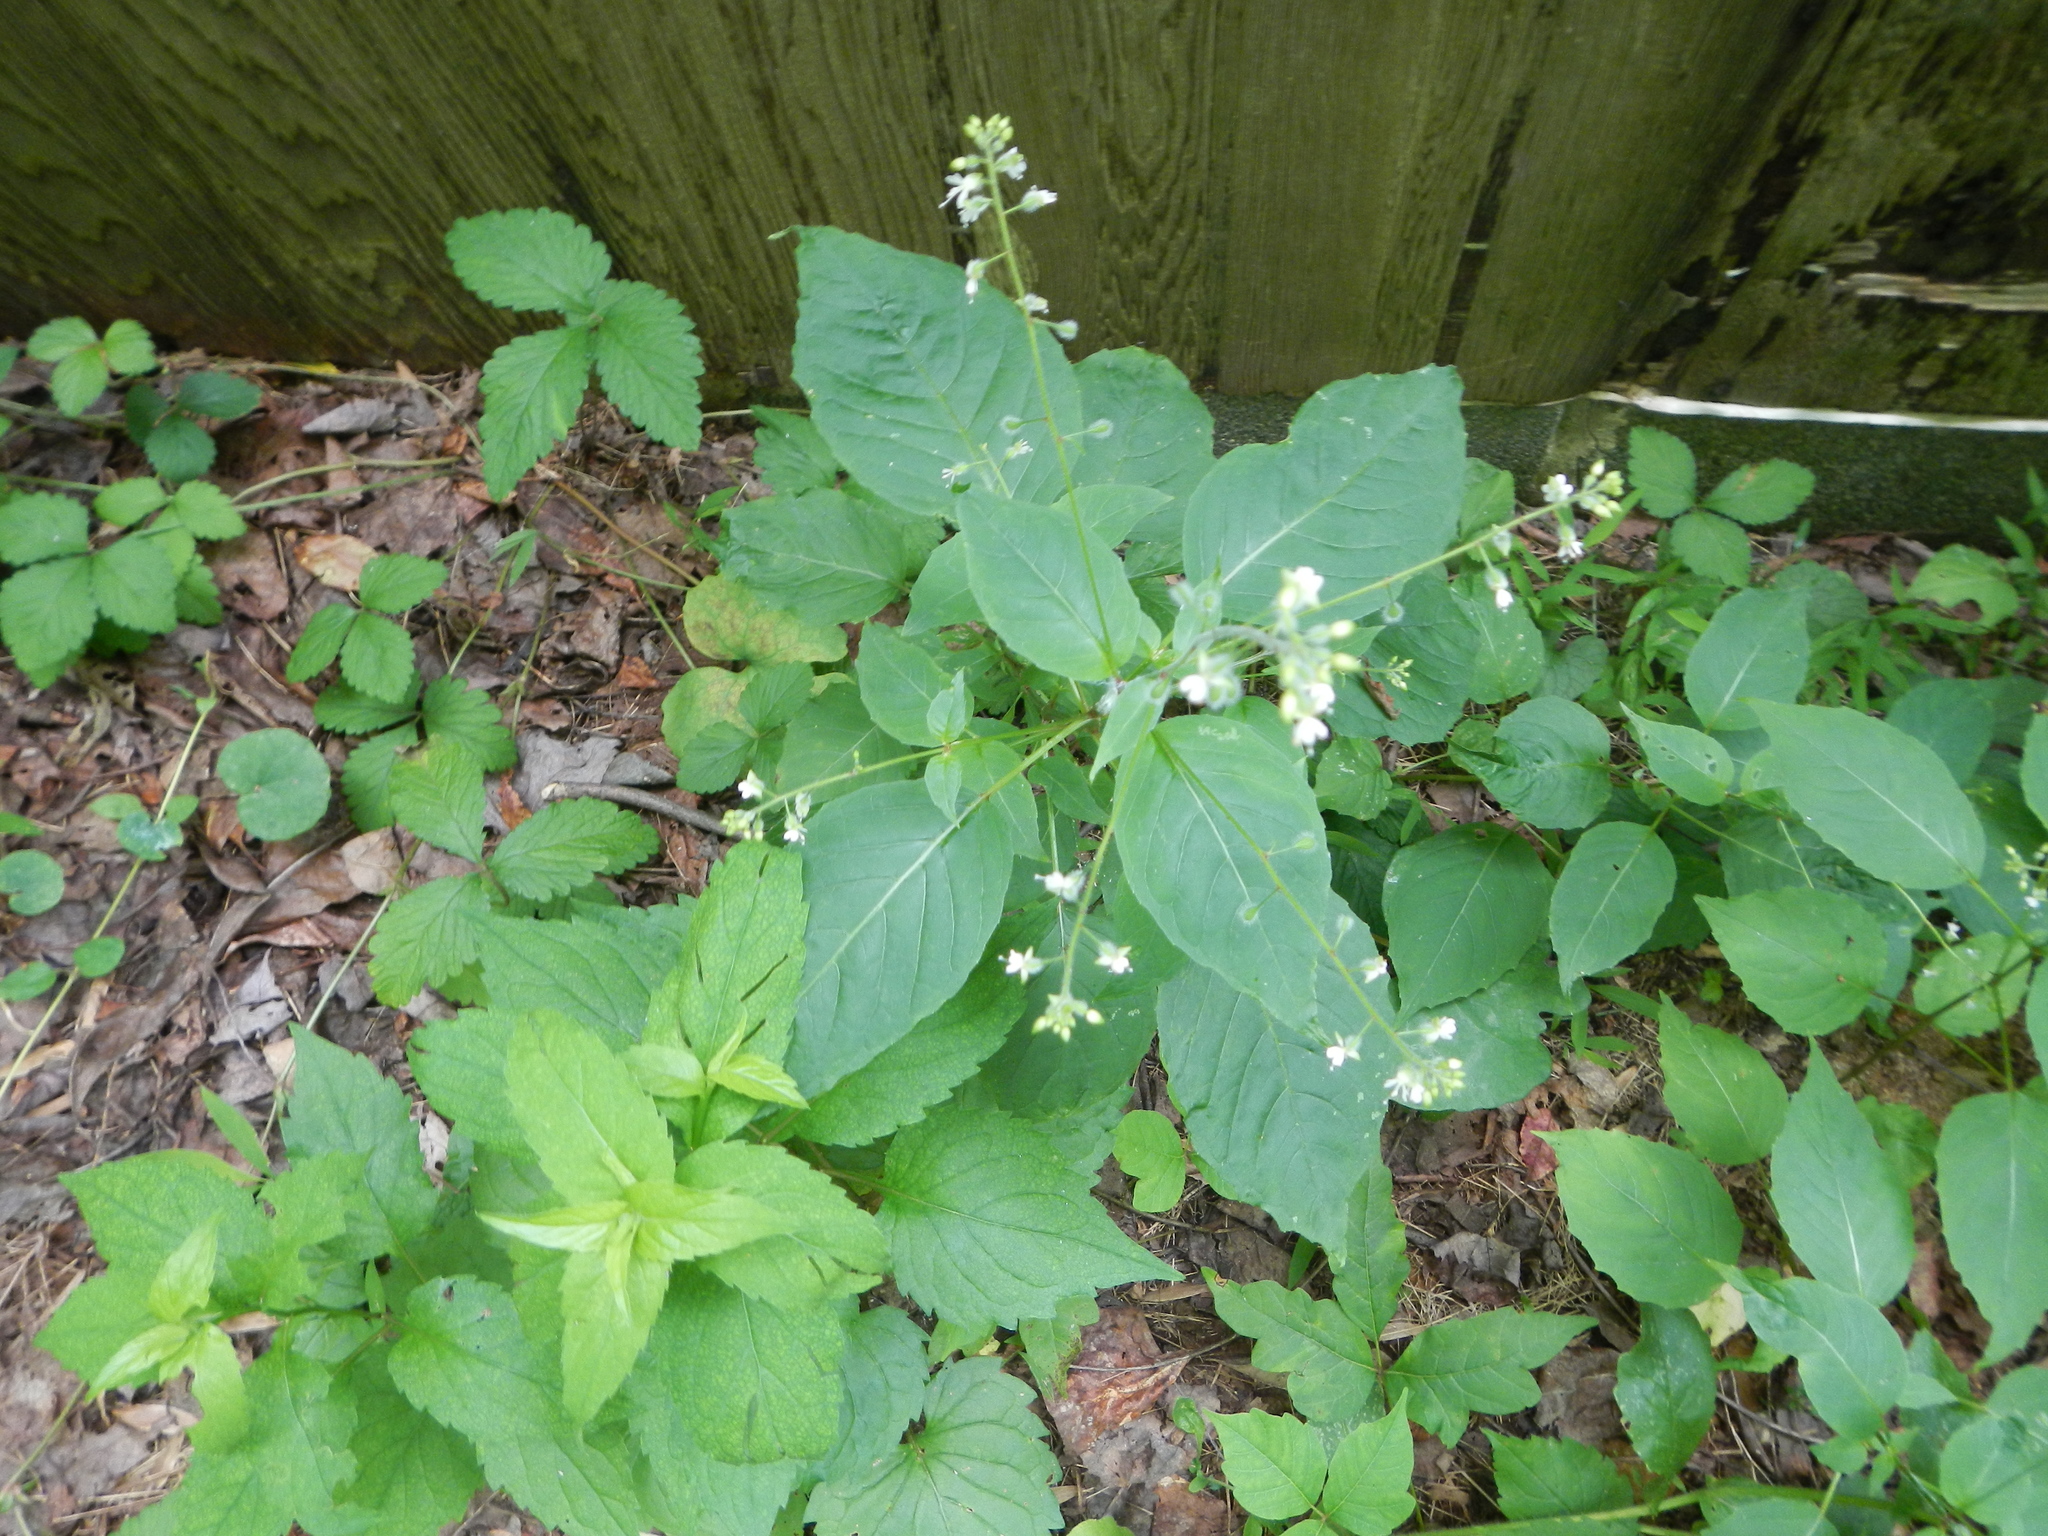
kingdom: Plantae
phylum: Tracheophyta
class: Magnoliopsida
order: Myrtales
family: Onagraceae
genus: Circaea
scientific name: Circaea canadensis
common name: Broad-leaved enchanter's nightshade
